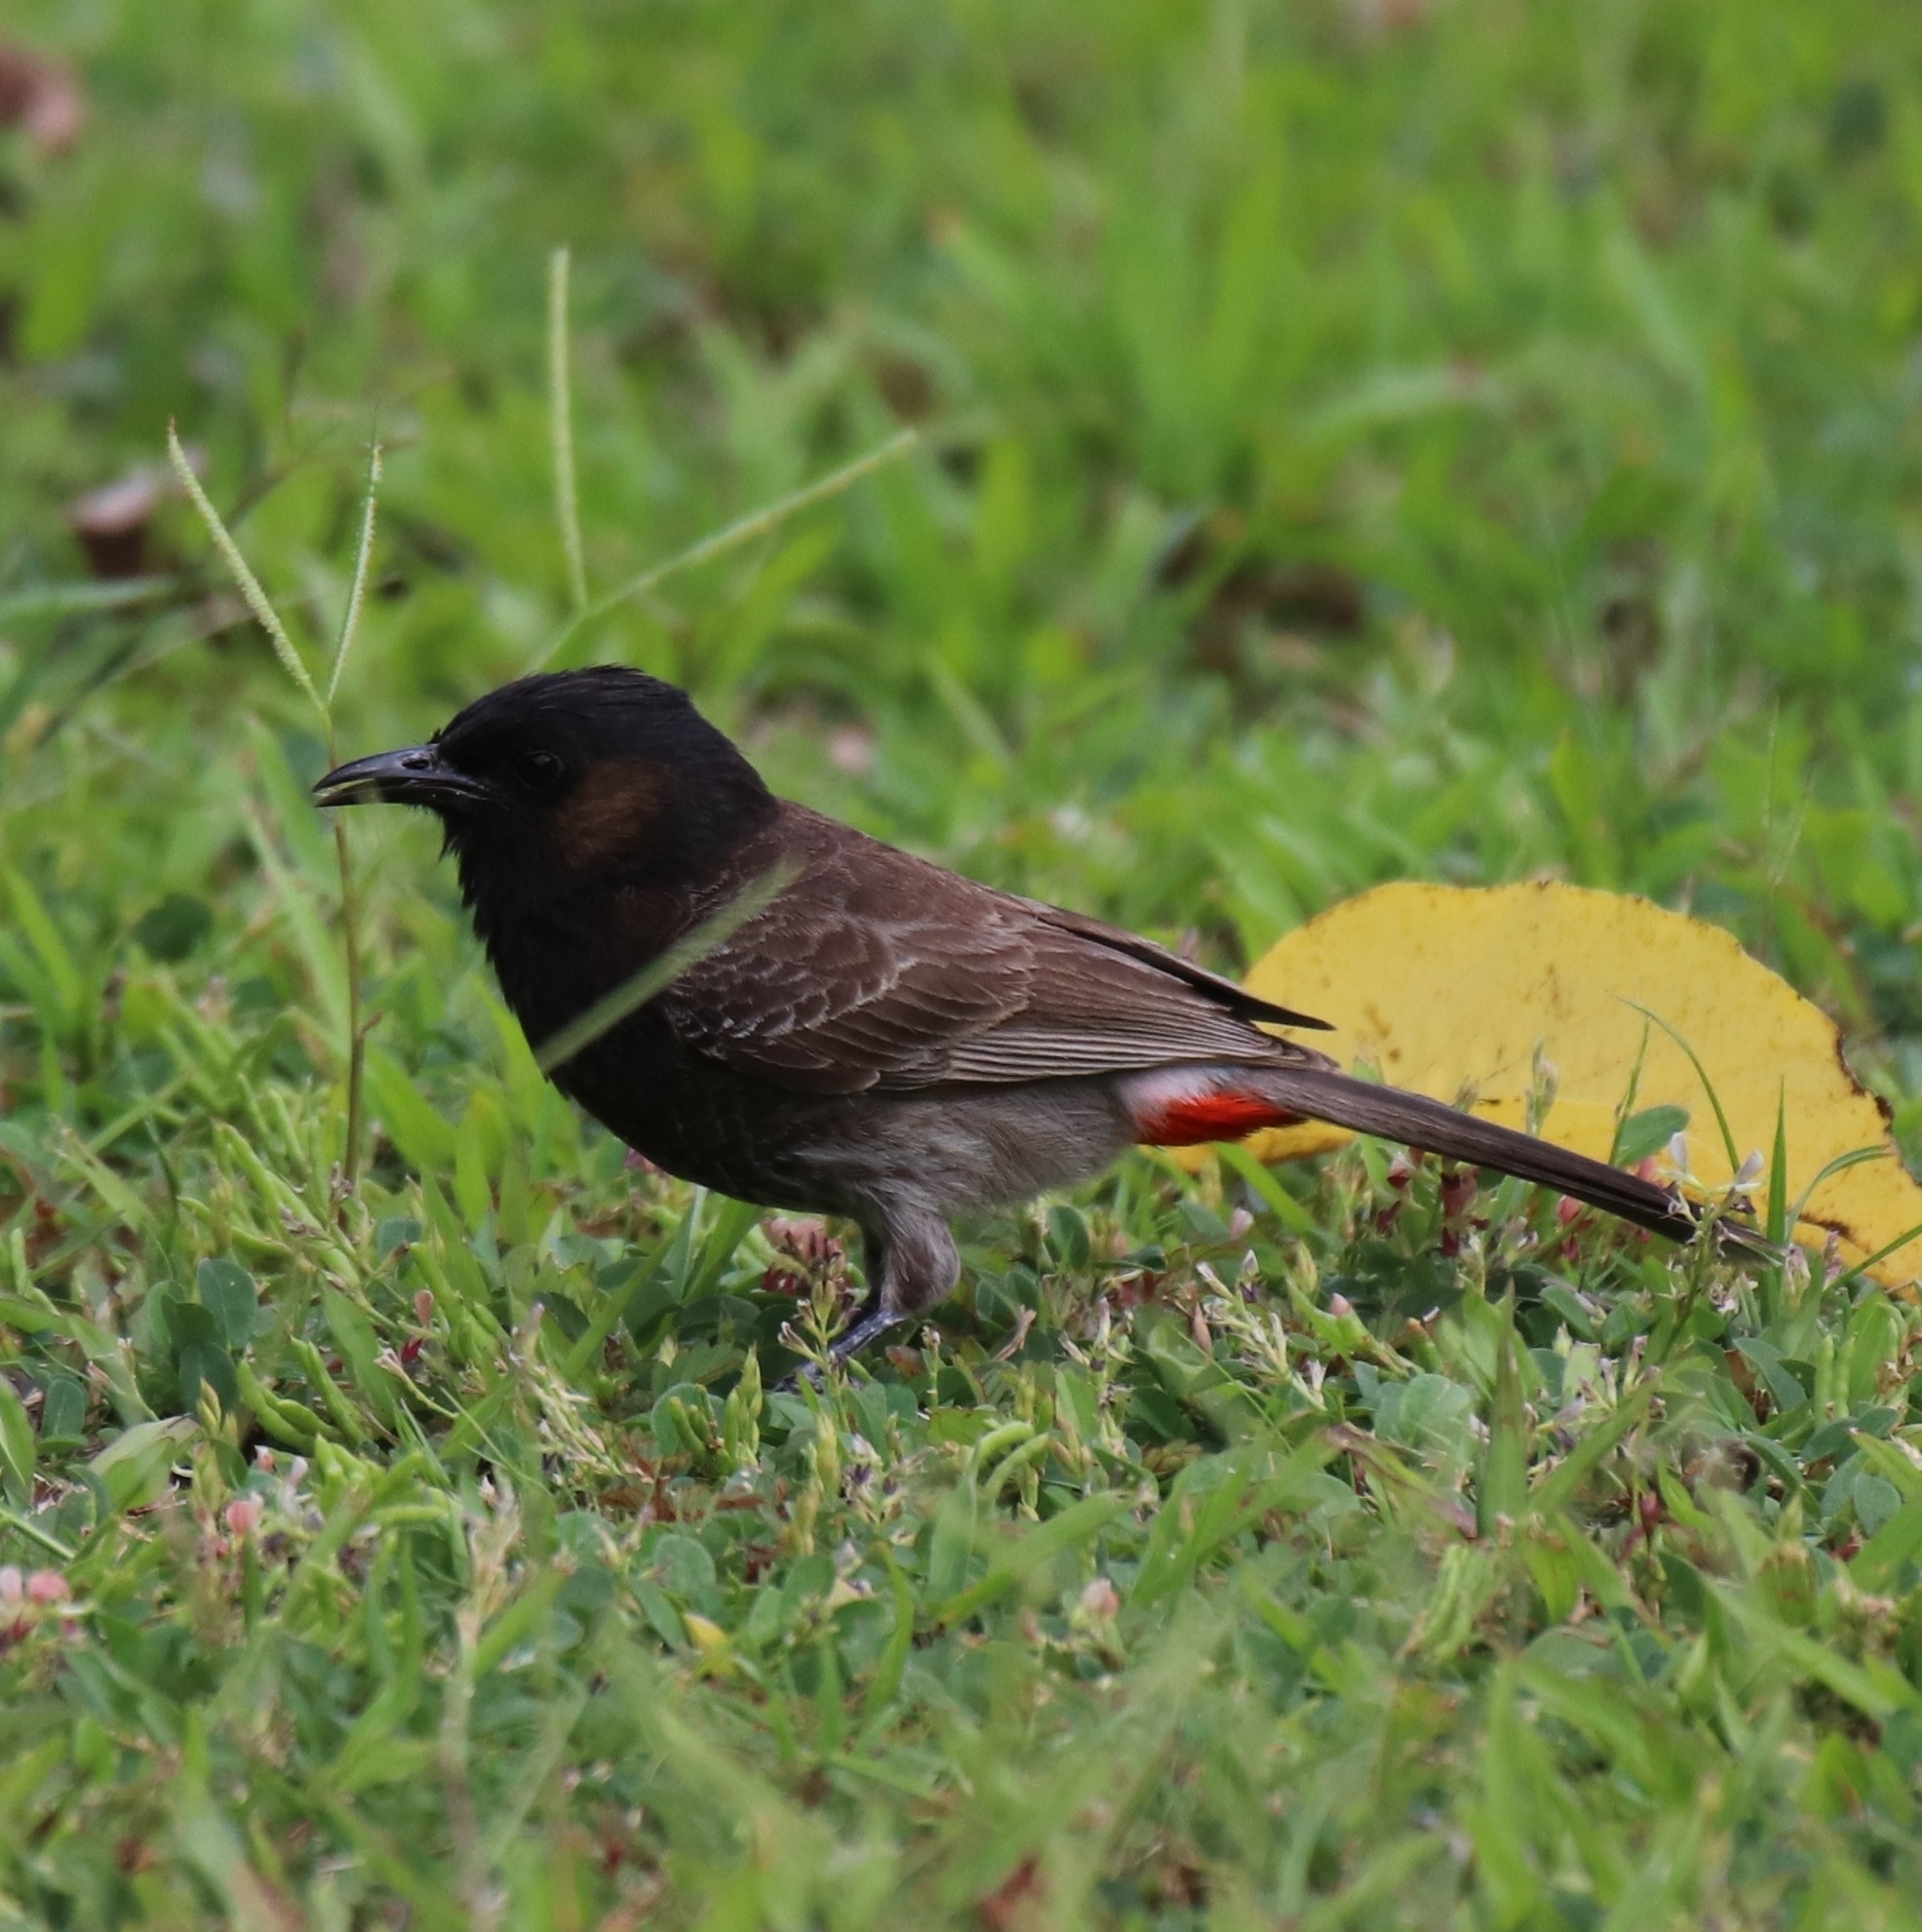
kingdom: Animalia
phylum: Chordata
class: Aves
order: Passeriformes
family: Pycnonotidae
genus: Pycnonotus
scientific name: Pycnonotus cafer
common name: Red-vented bulbul
